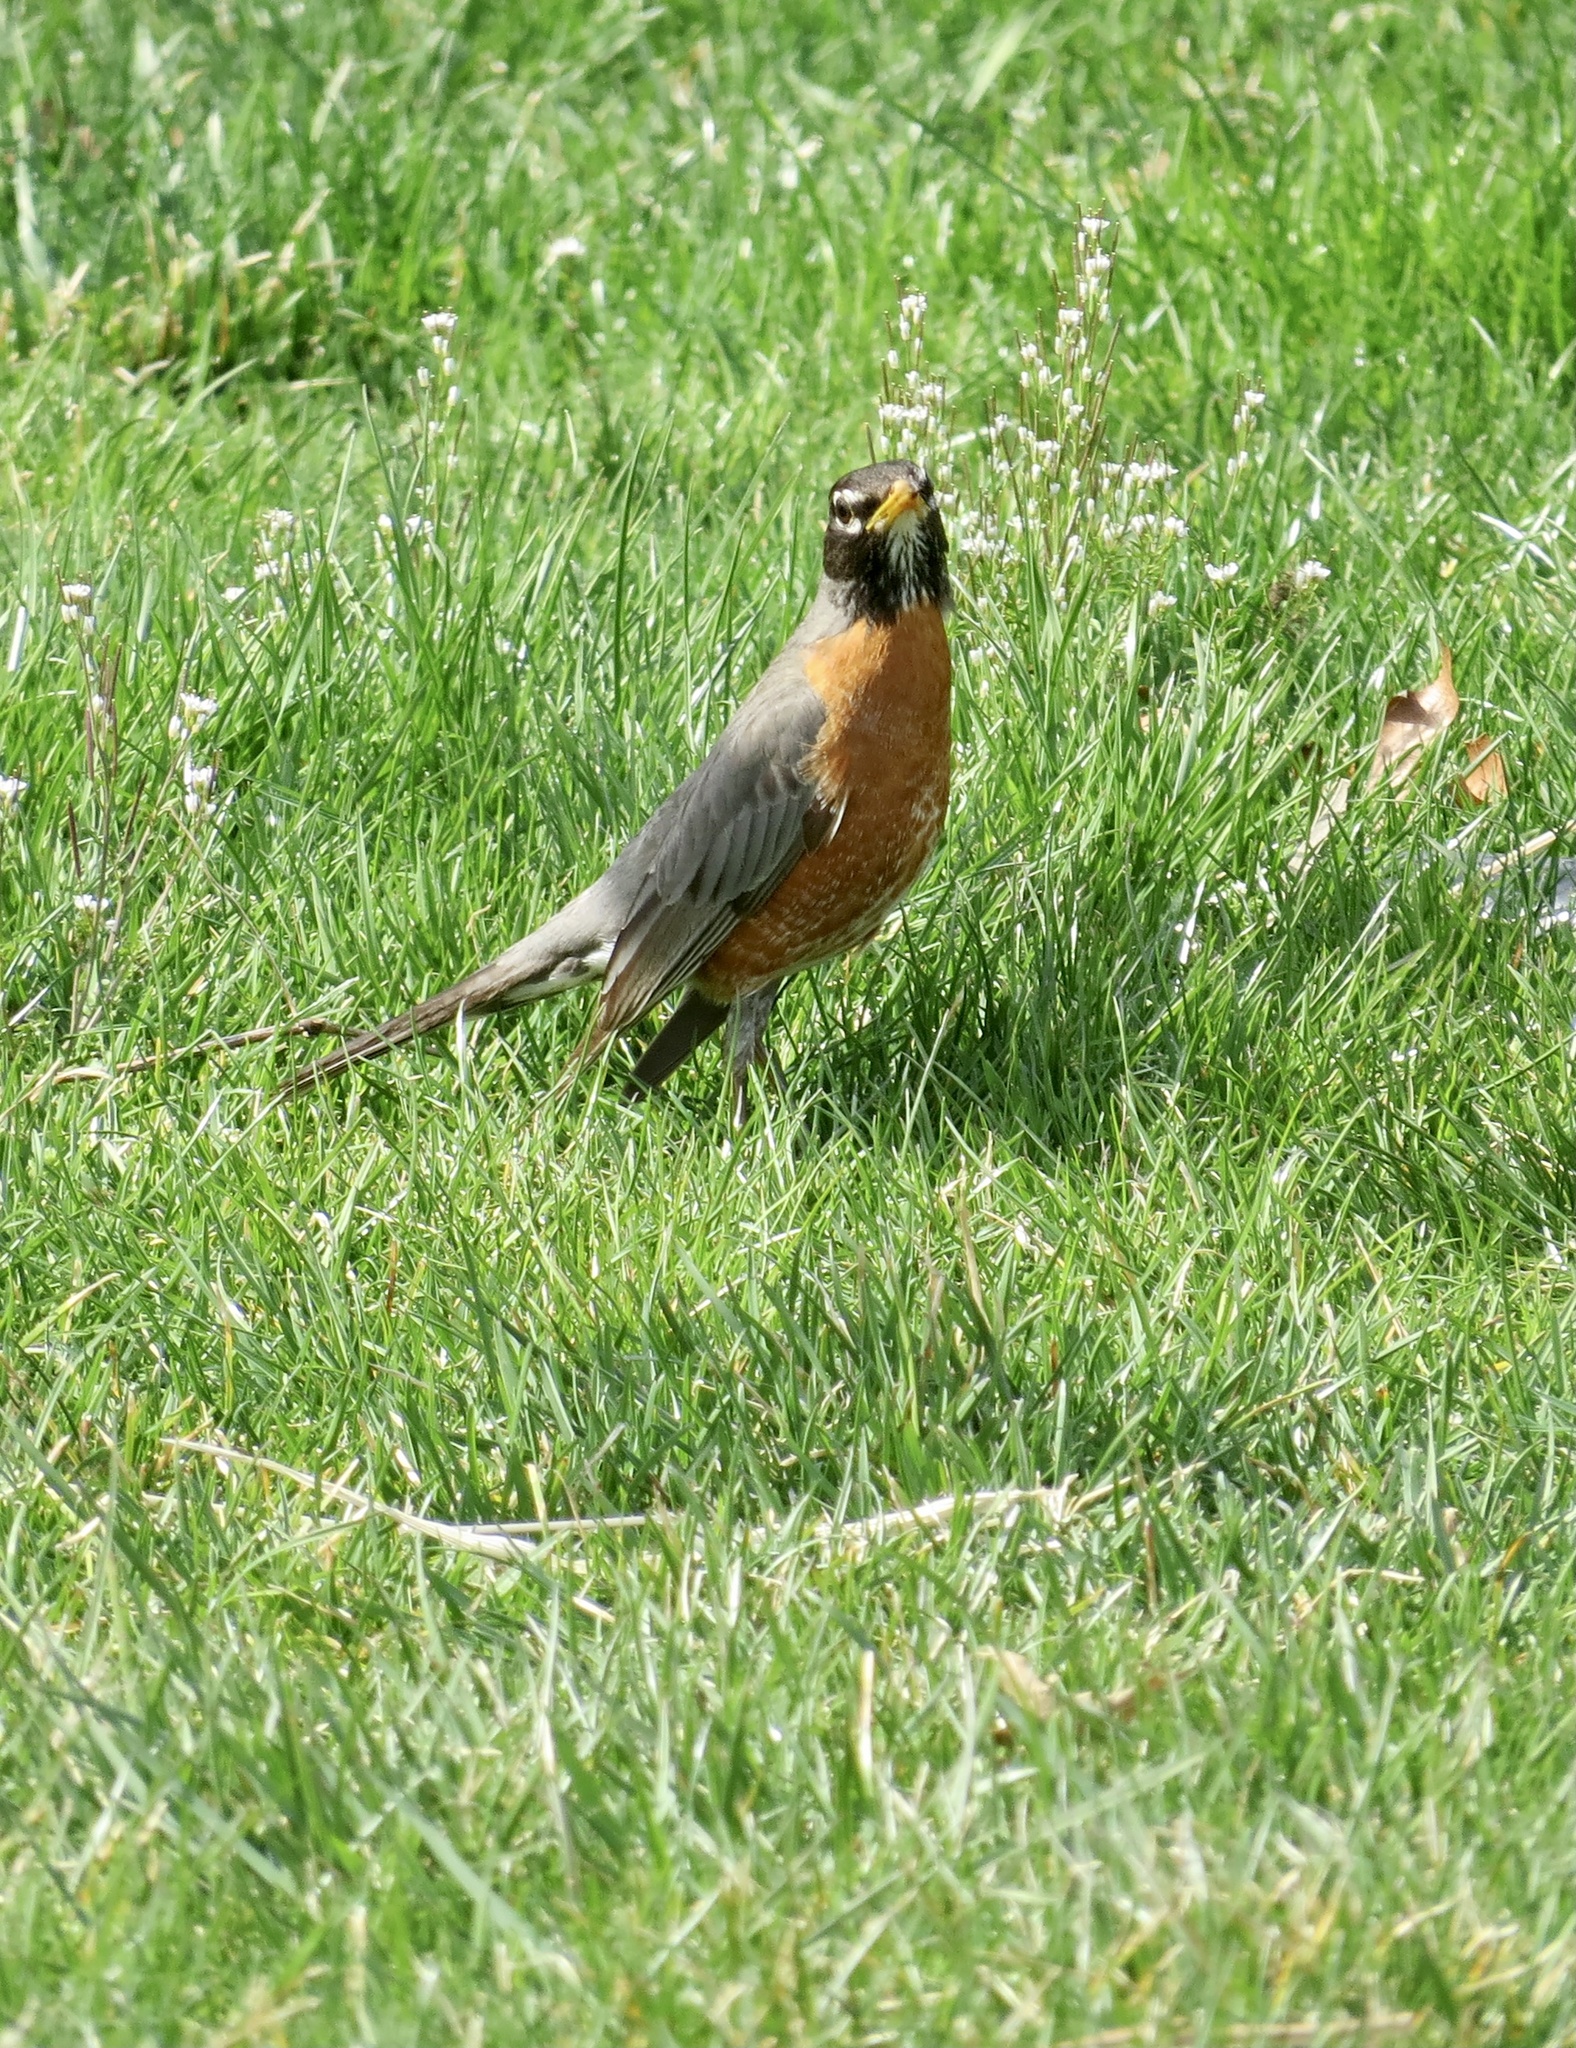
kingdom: Animalia
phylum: Chordata
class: Aves
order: Passeriformes
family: Turdidae
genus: Turdus
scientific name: Turdus migratorius
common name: American robin
